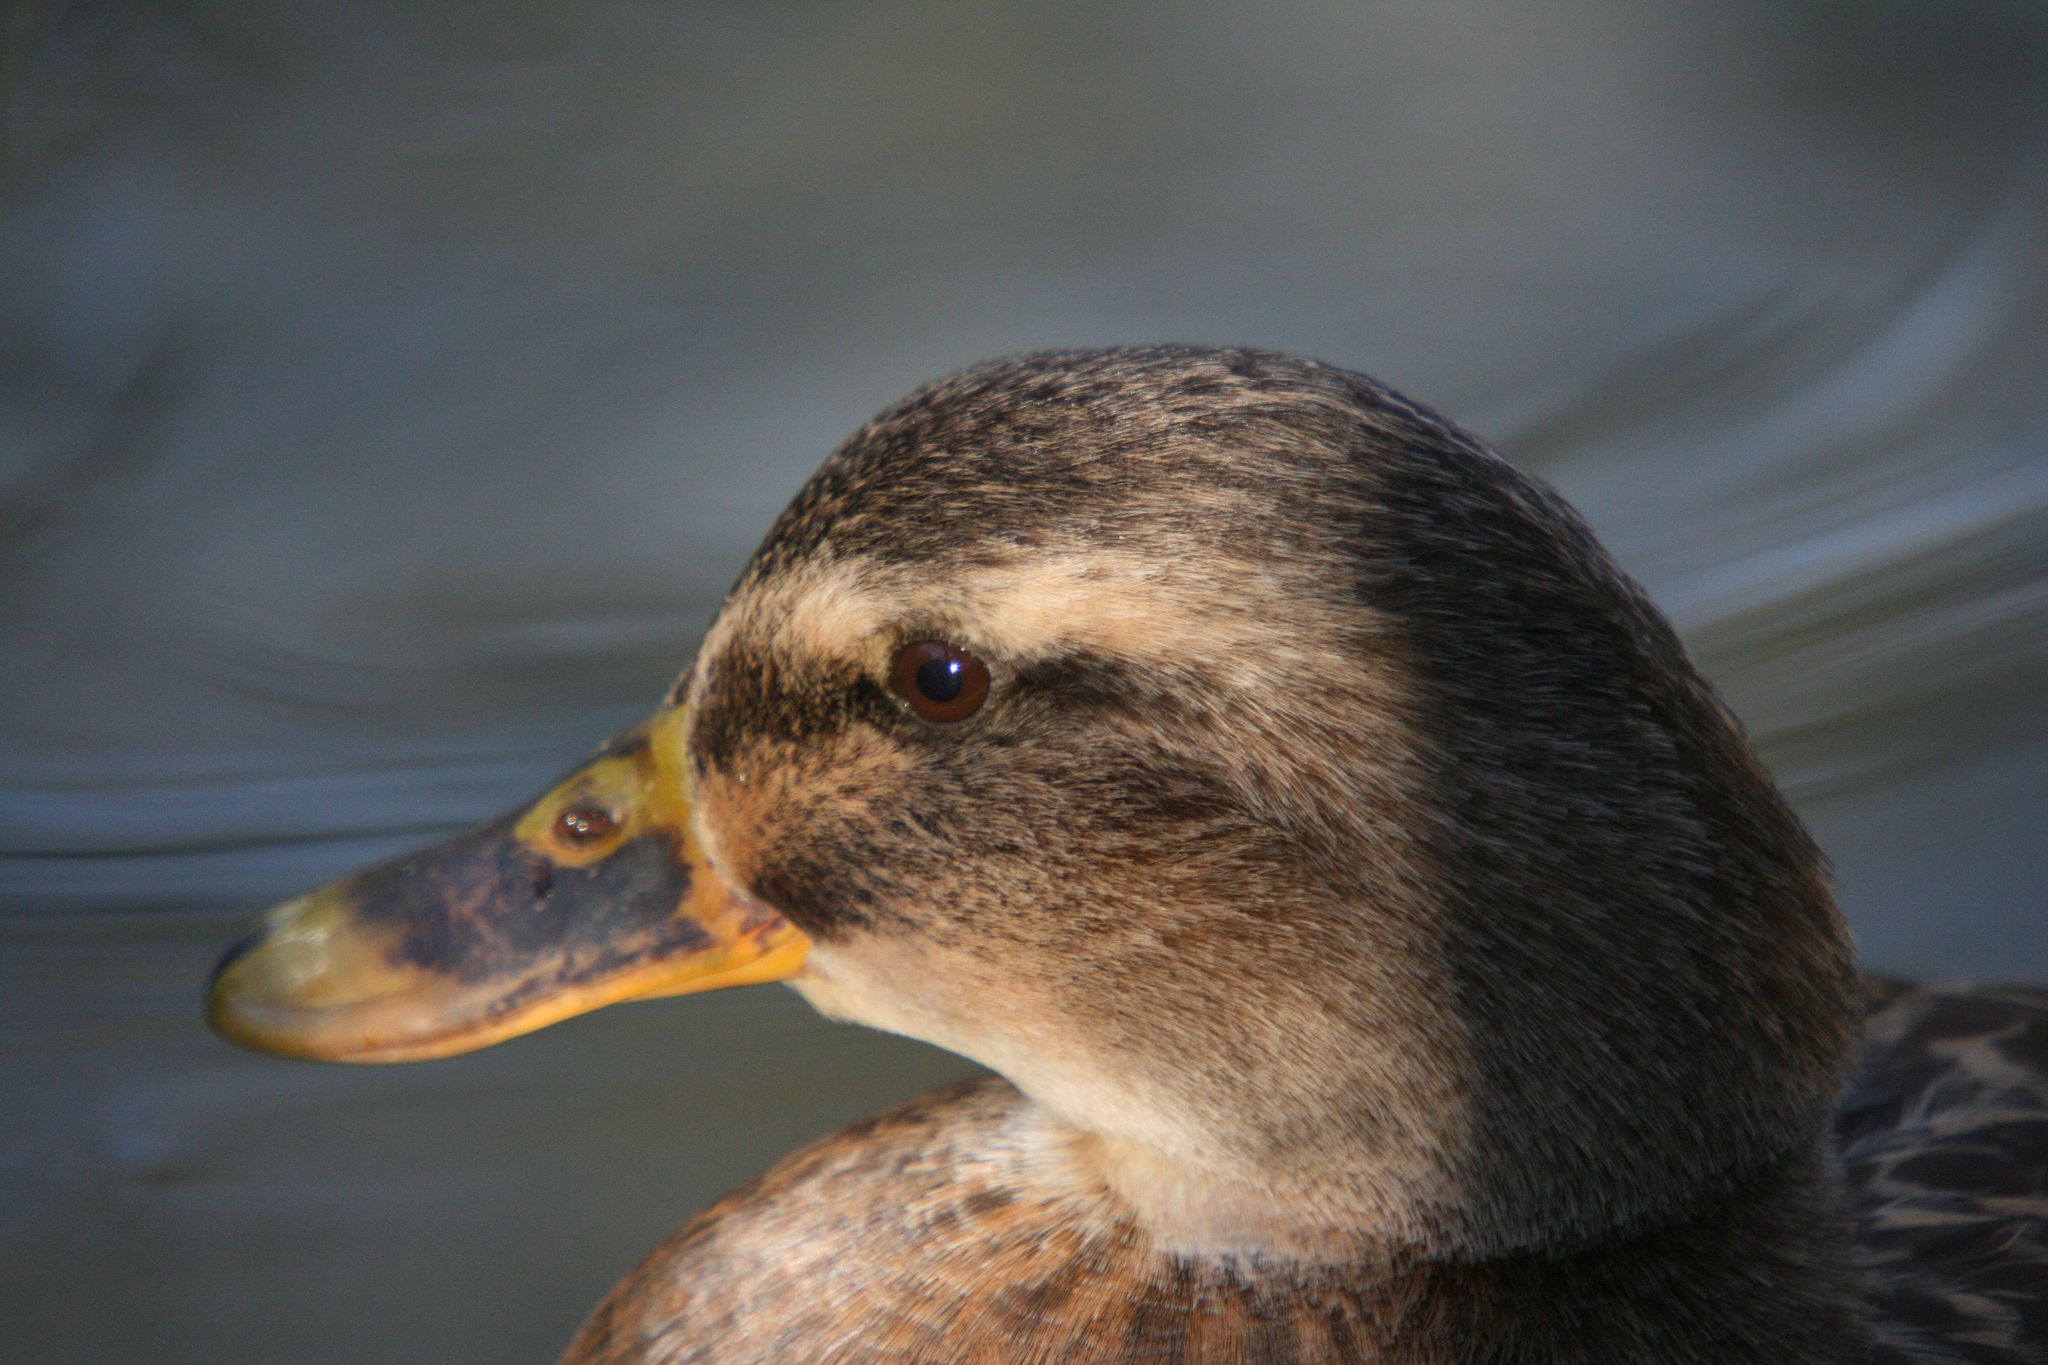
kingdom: Animalia
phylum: Chordata
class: Aves
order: Anseriformes
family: Anatidae
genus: Anas
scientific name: Anas platyrhynchos
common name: Mallard
